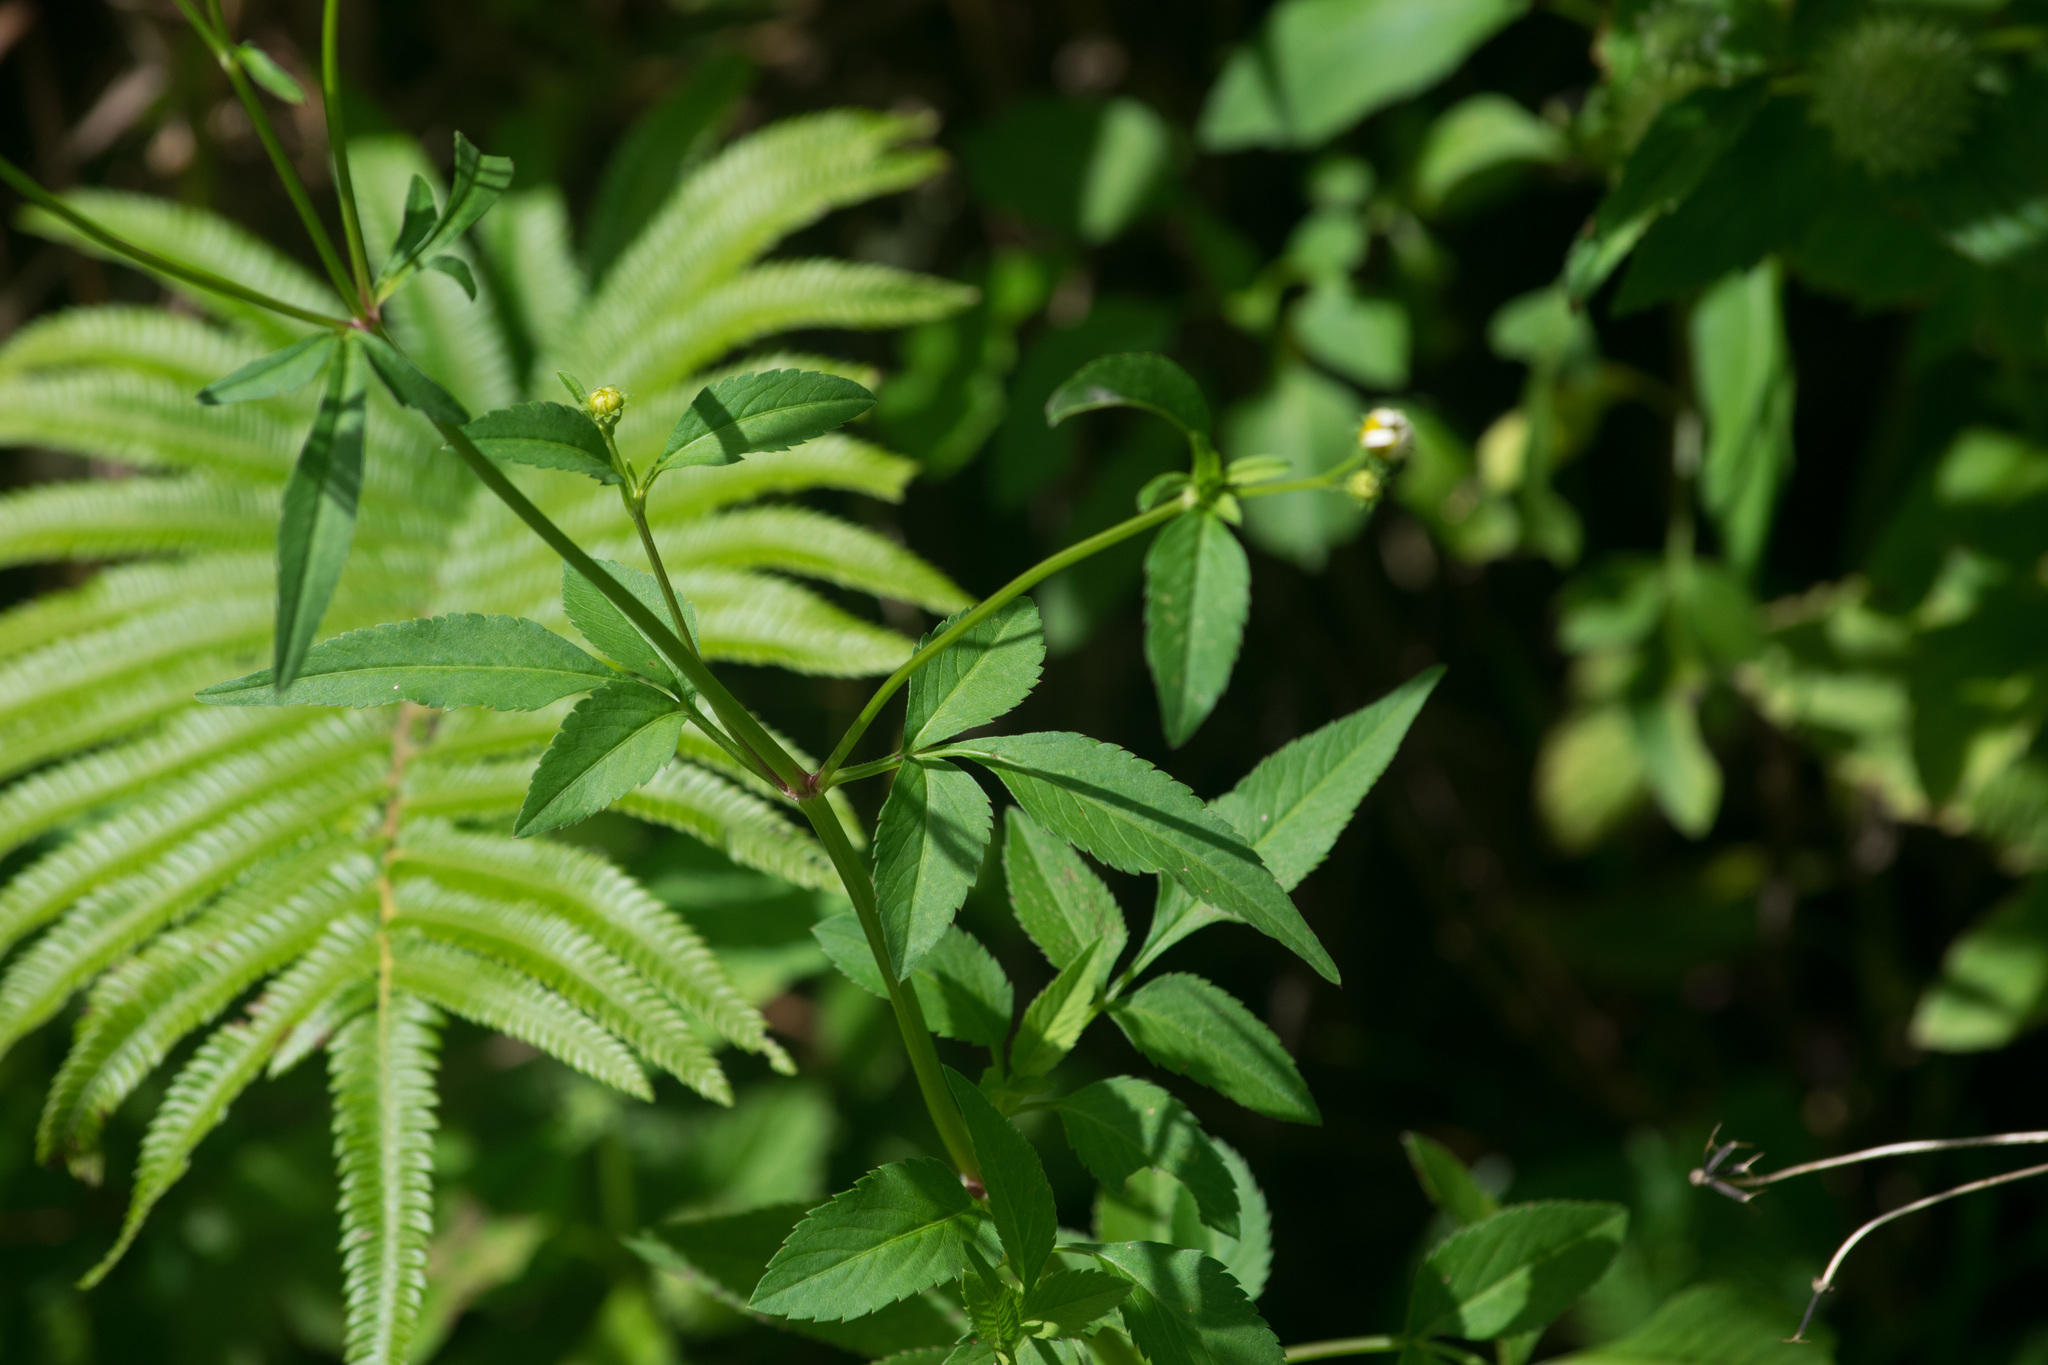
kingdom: Plantae
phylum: Tracheophyta
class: Magnoliopsida
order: Asterales
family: Asteraceae
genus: Bidens
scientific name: Bidens alba
